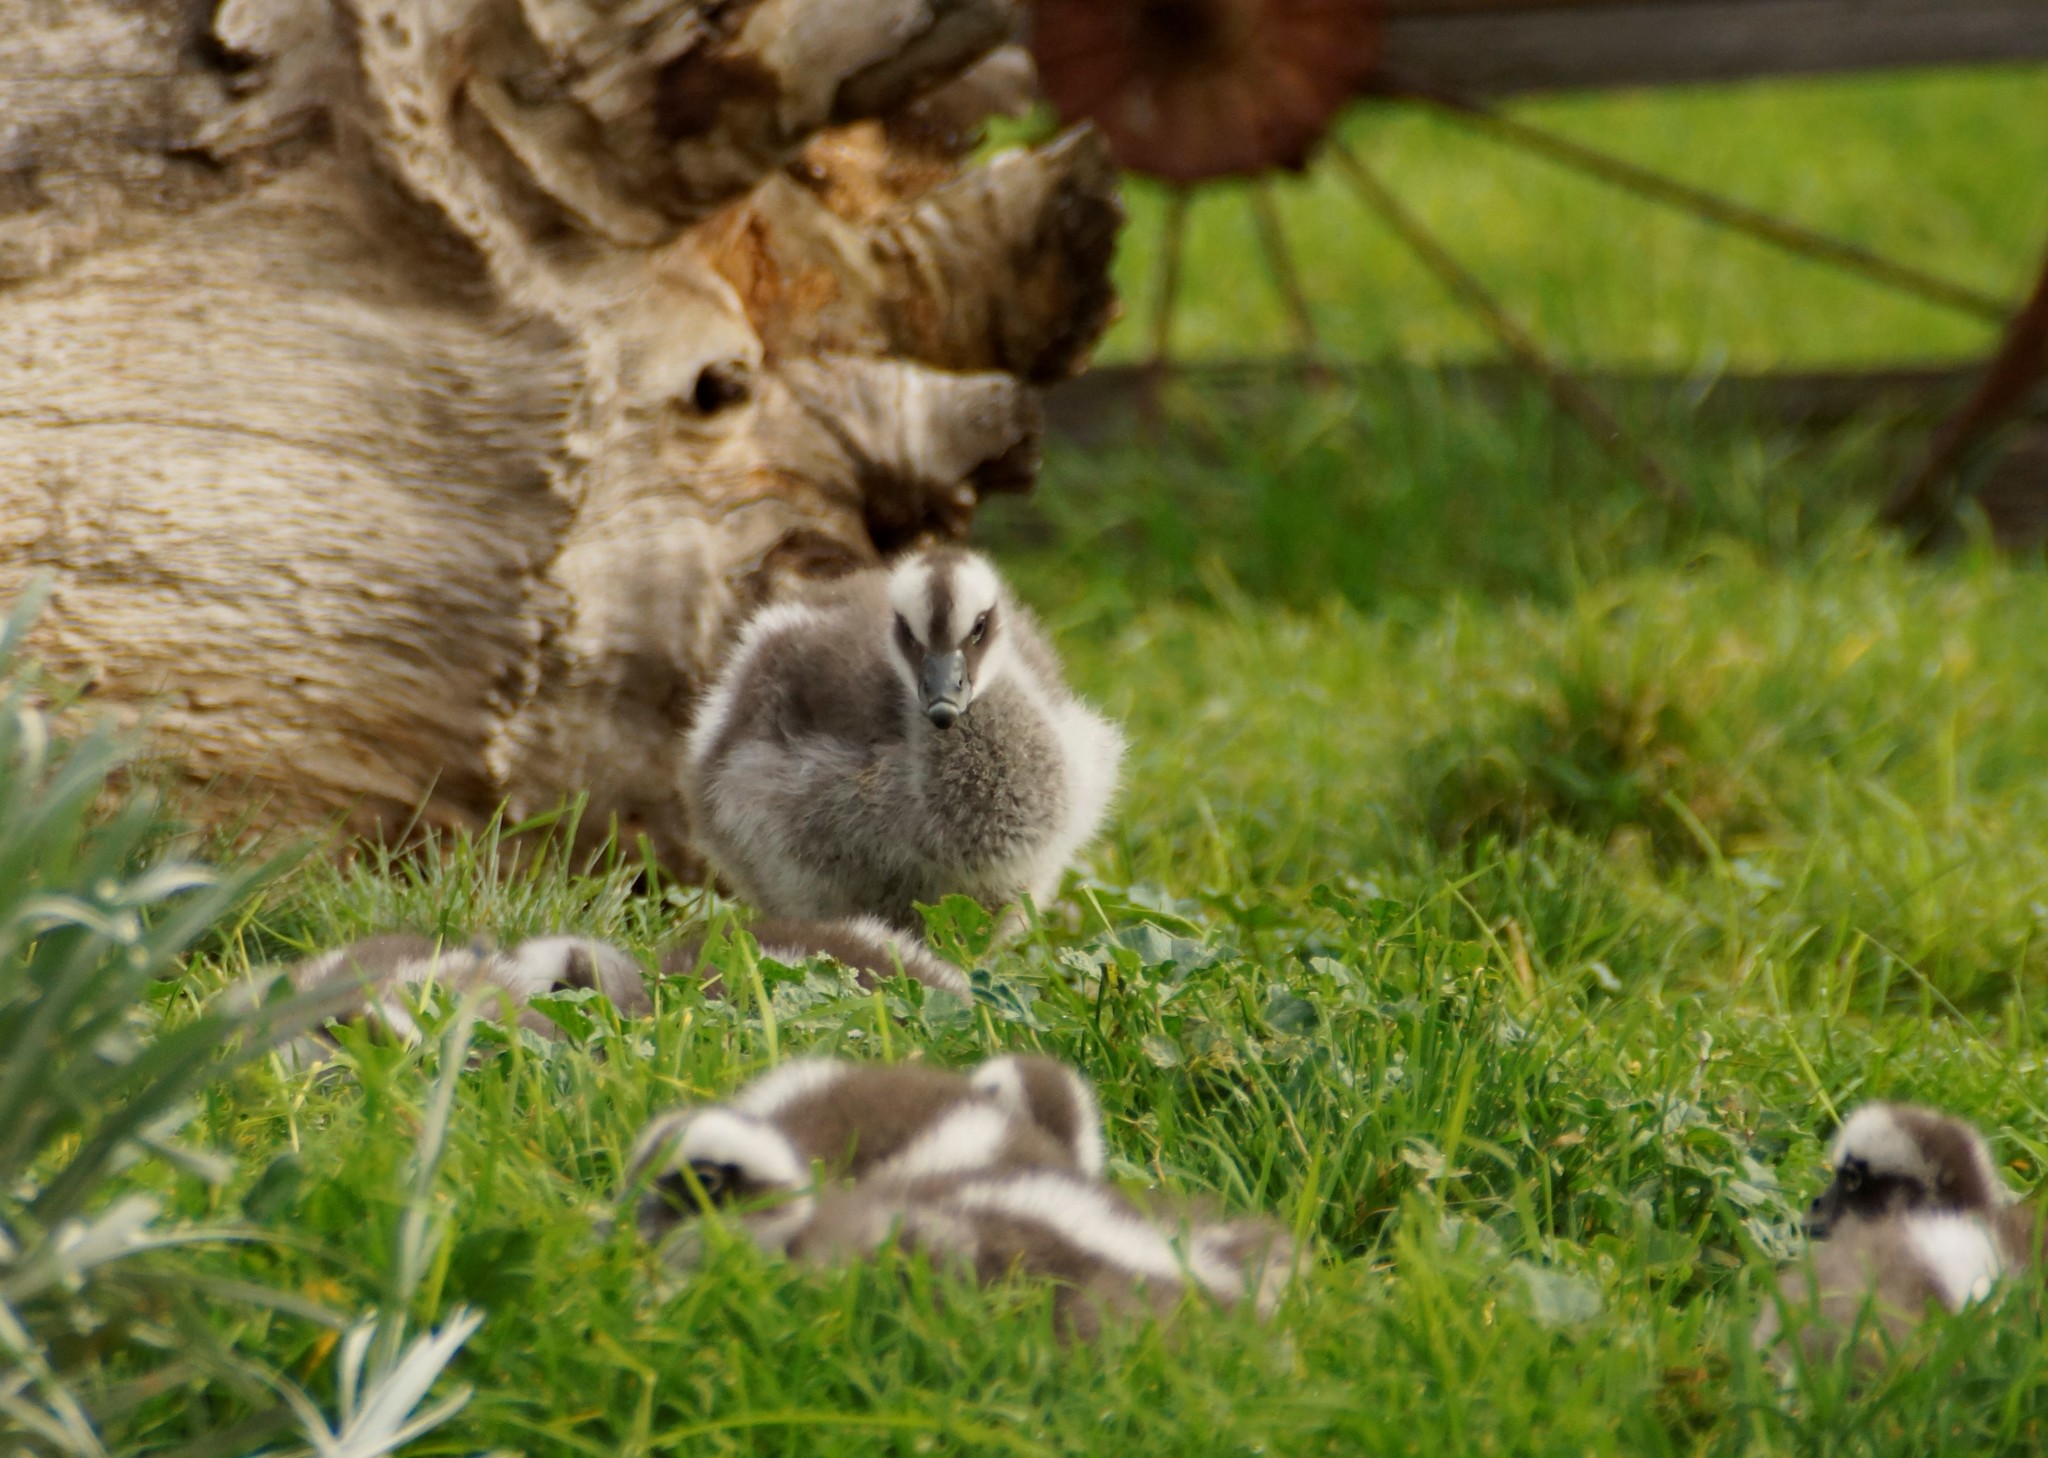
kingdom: Animalia
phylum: Chordata
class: Aves
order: Anseriformes
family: Anatidae
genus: Cereopsis
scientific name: Cereopsis novaehollandiae
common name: Cape barren goose
